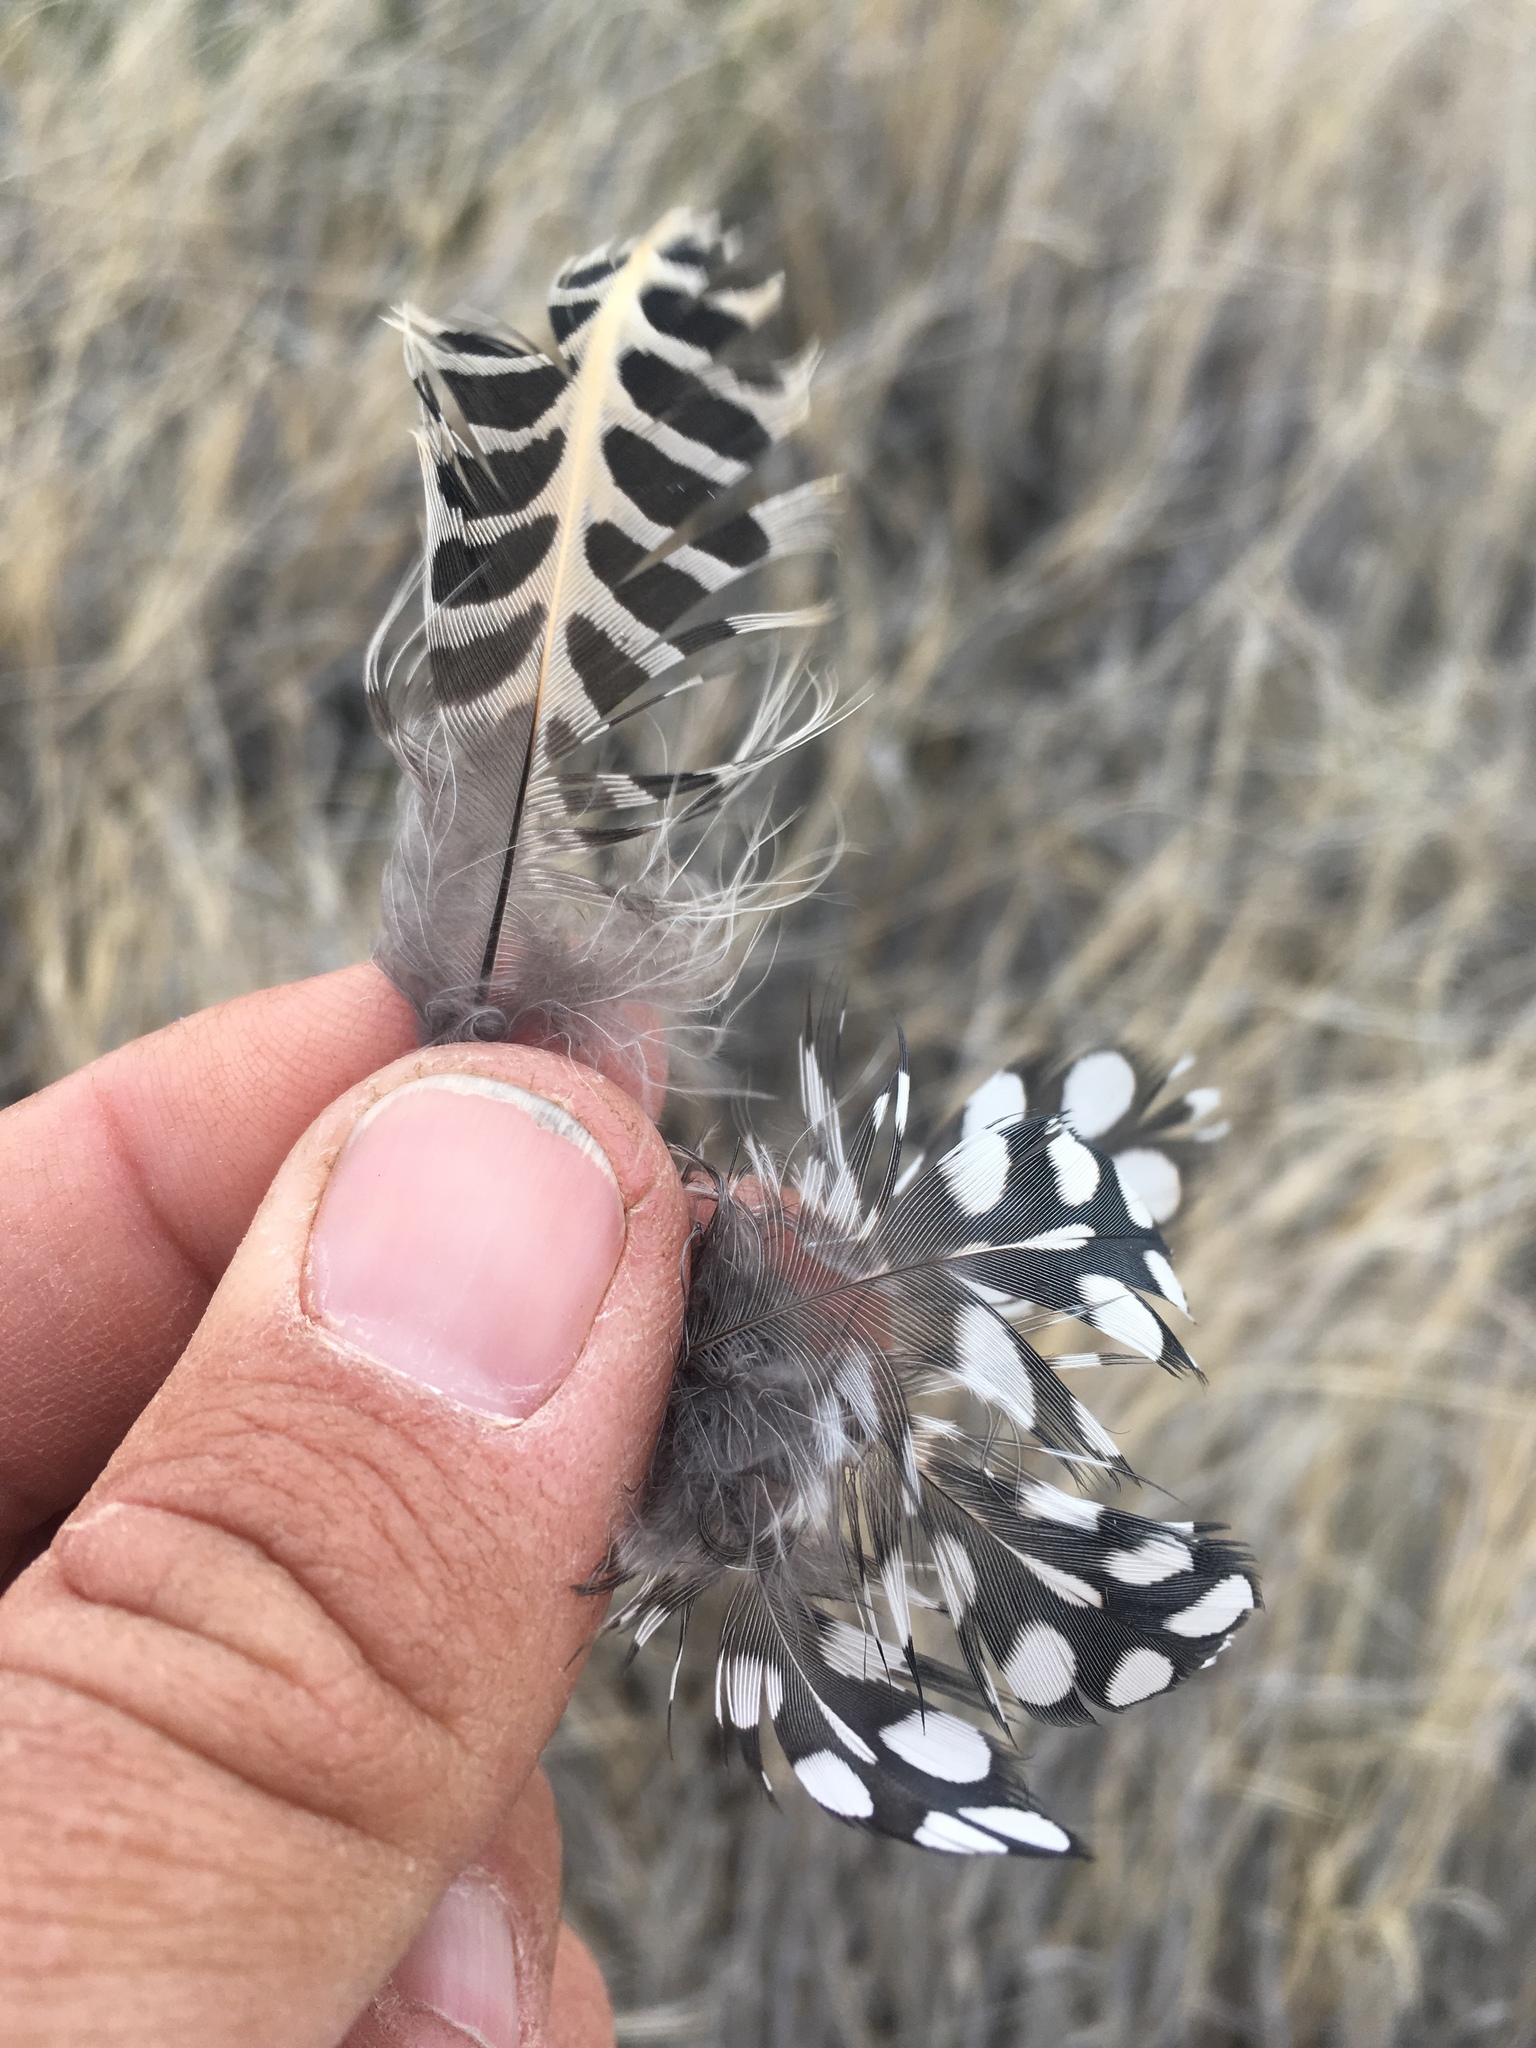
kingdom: Animalia
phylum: Chordata
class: Aves
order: Galliformes
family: Odontophoridae
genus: Cyrtonyx
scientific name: Cyrtonyx montezumae
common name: Montezuma quail
